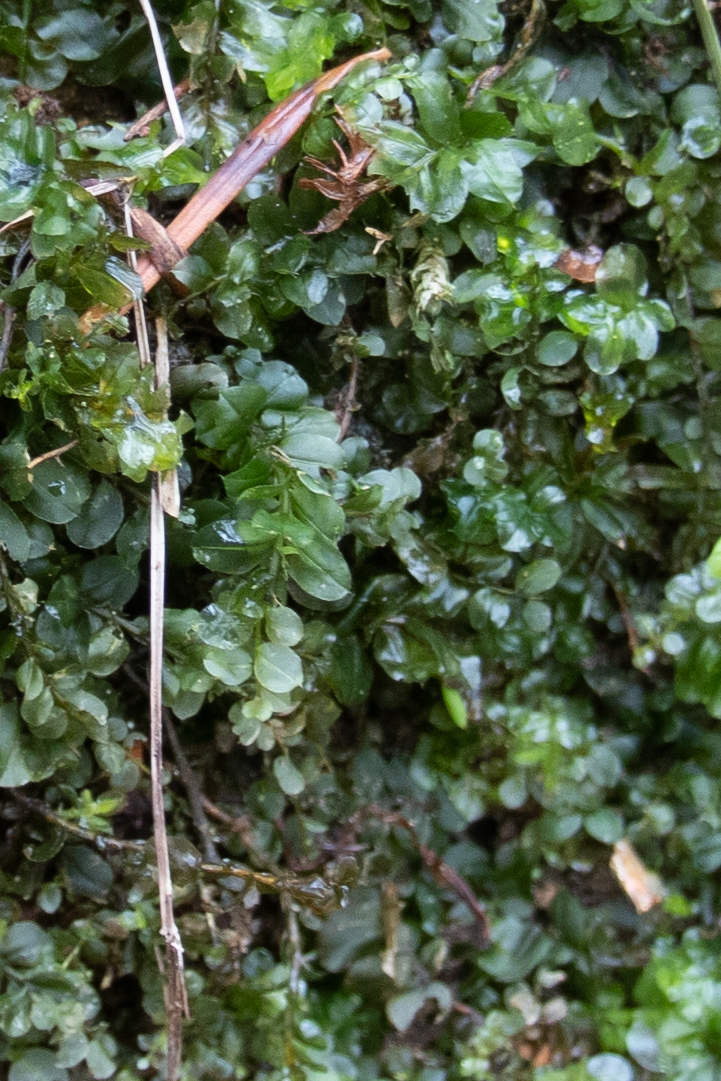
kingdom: Plantae
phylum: Bryophyta
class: Bryopsida
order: Bryales
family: Mniaceae
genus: Plagiomnium
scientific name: Plagiomnium affine
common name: Many-fruited thyme-moss
